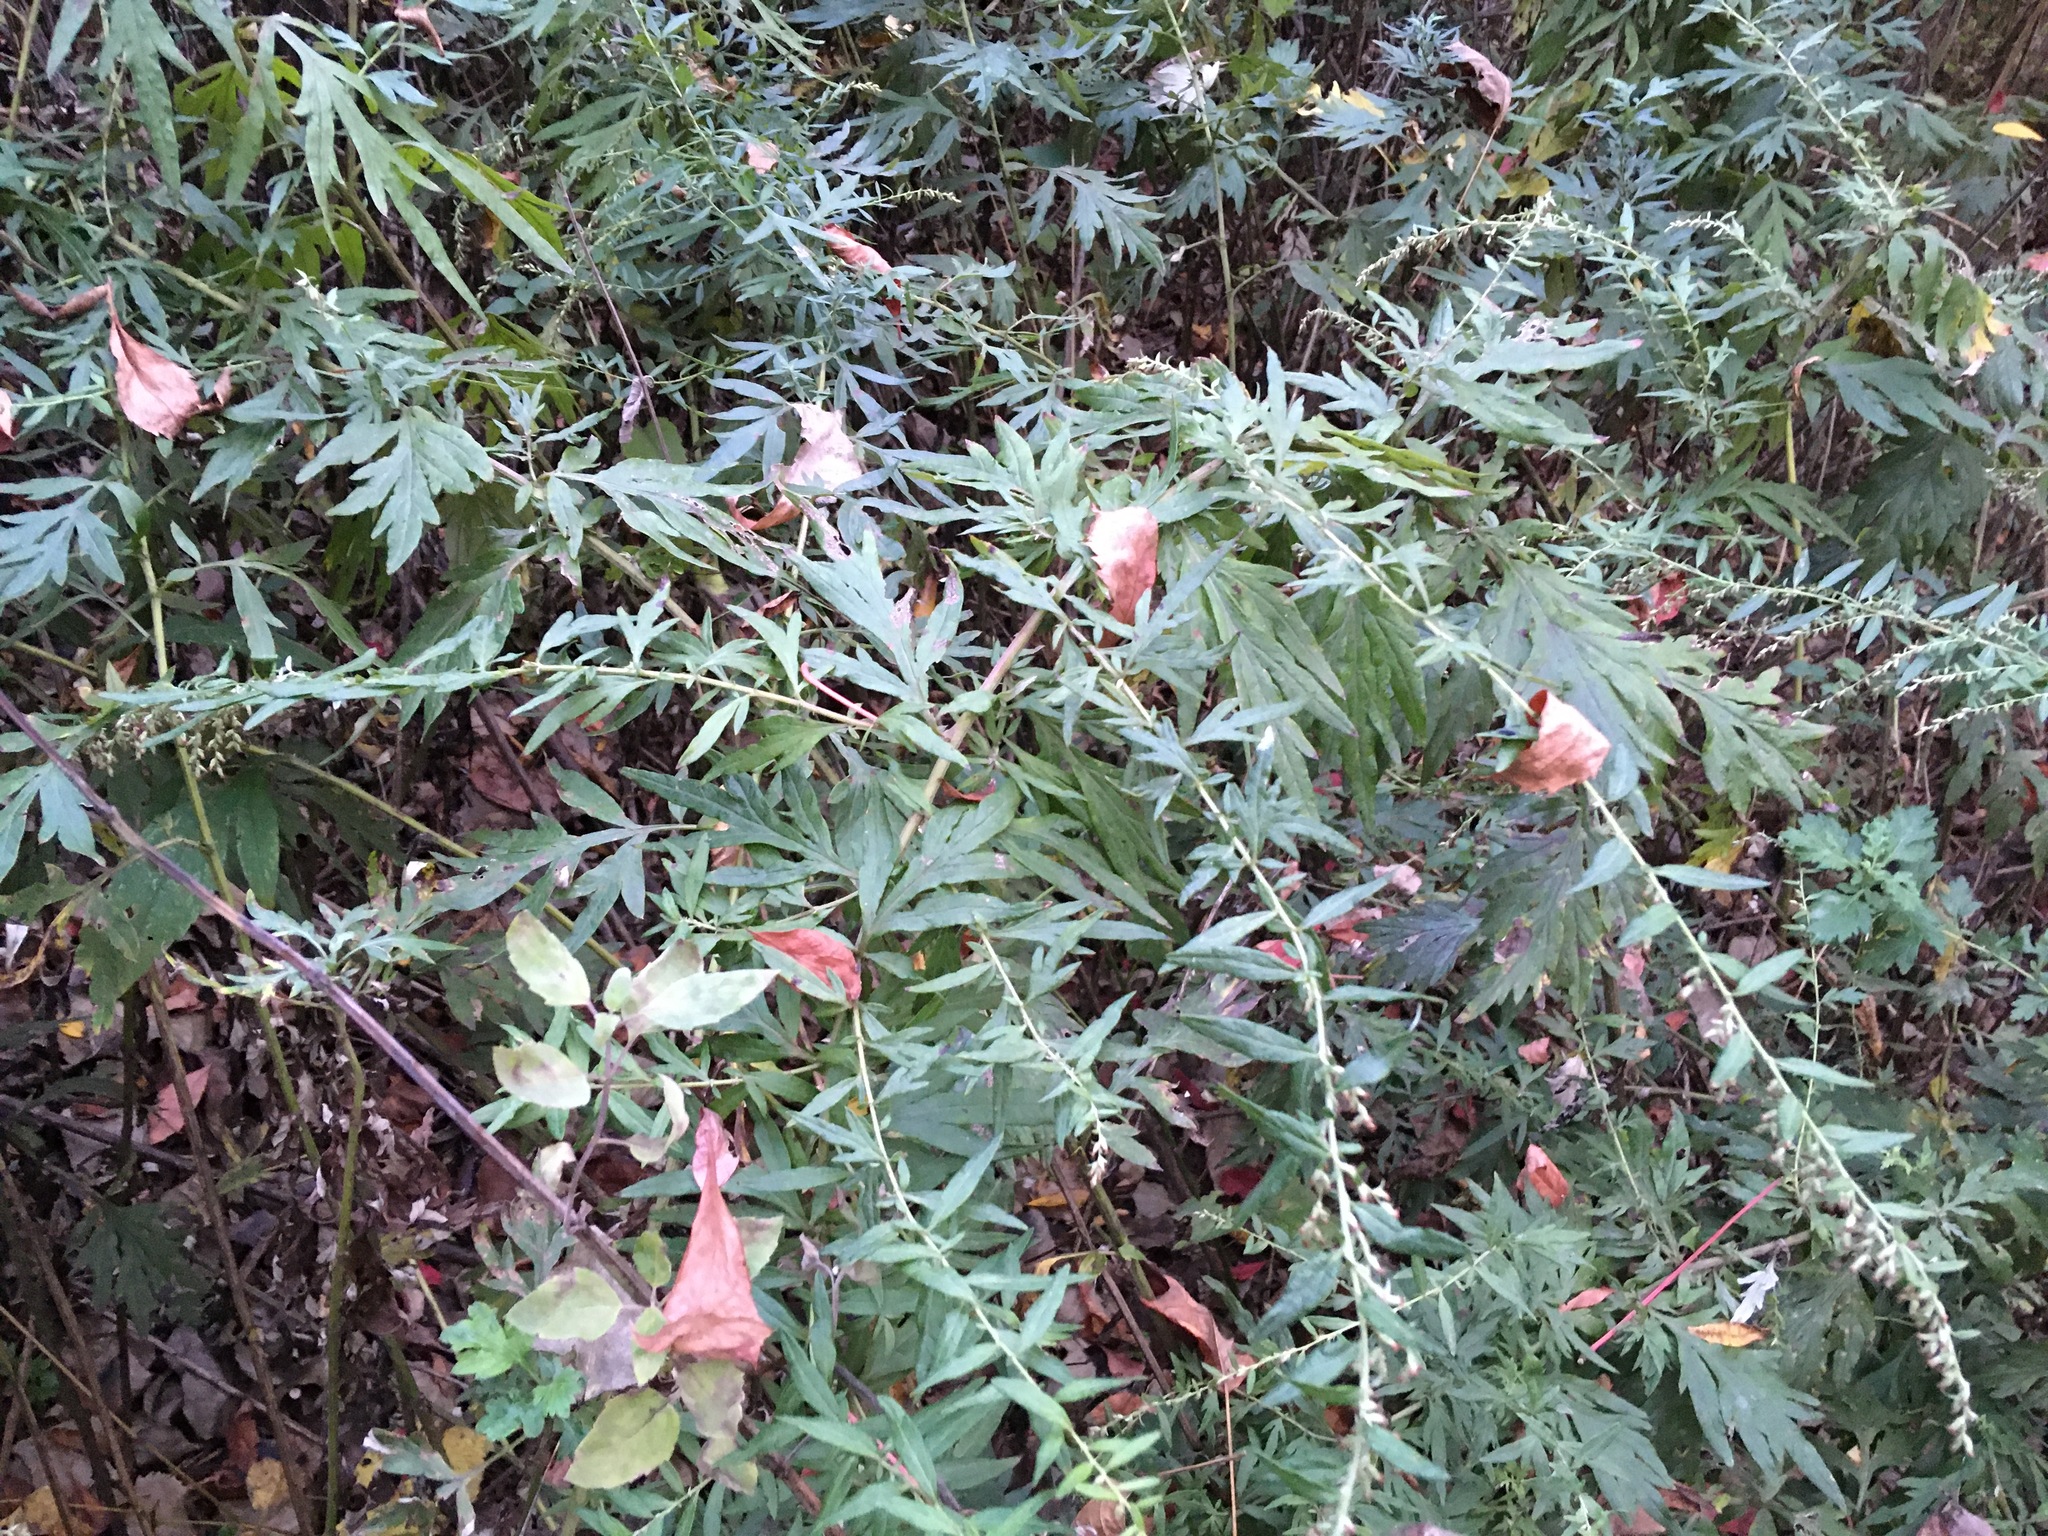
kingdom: Plantae
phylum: Tracheophyta
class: Magnoliopsida
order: Asterales
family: Asteraceae
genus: Artemisia
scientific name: Artemisia vulgaris
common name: Mugwort
